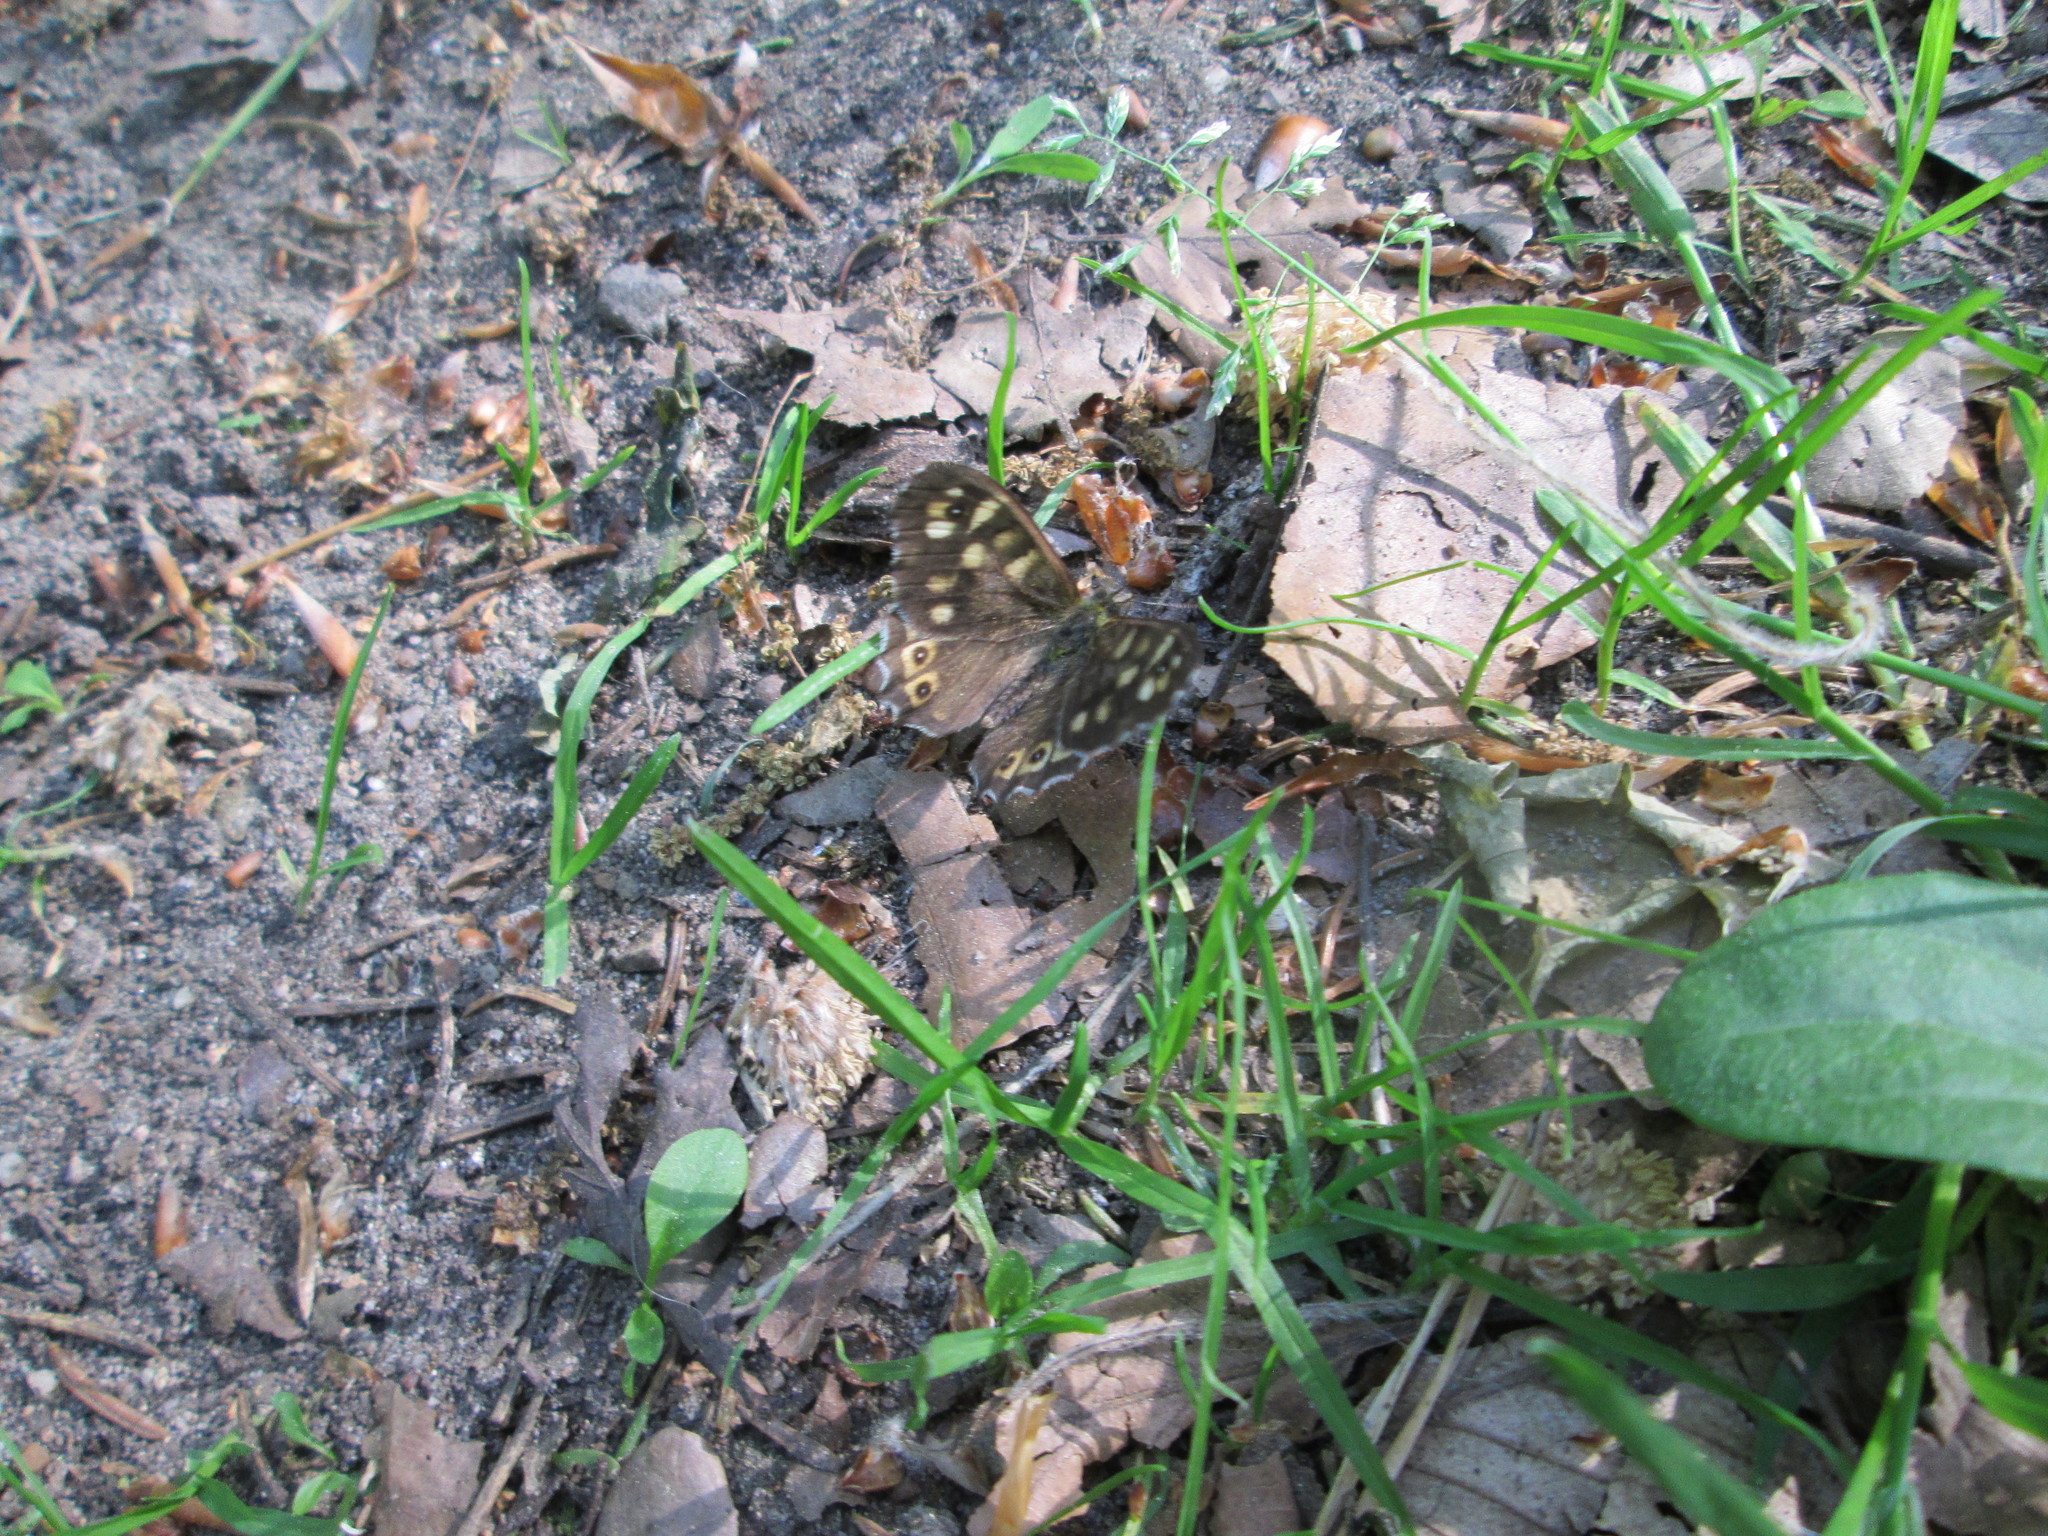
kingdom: Animalia
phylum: Arthropoda
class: Insecta
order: Lepidoptera
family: Nymphalidae
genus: Pararge
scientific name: Pararge aegeria
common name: Speckled wood
